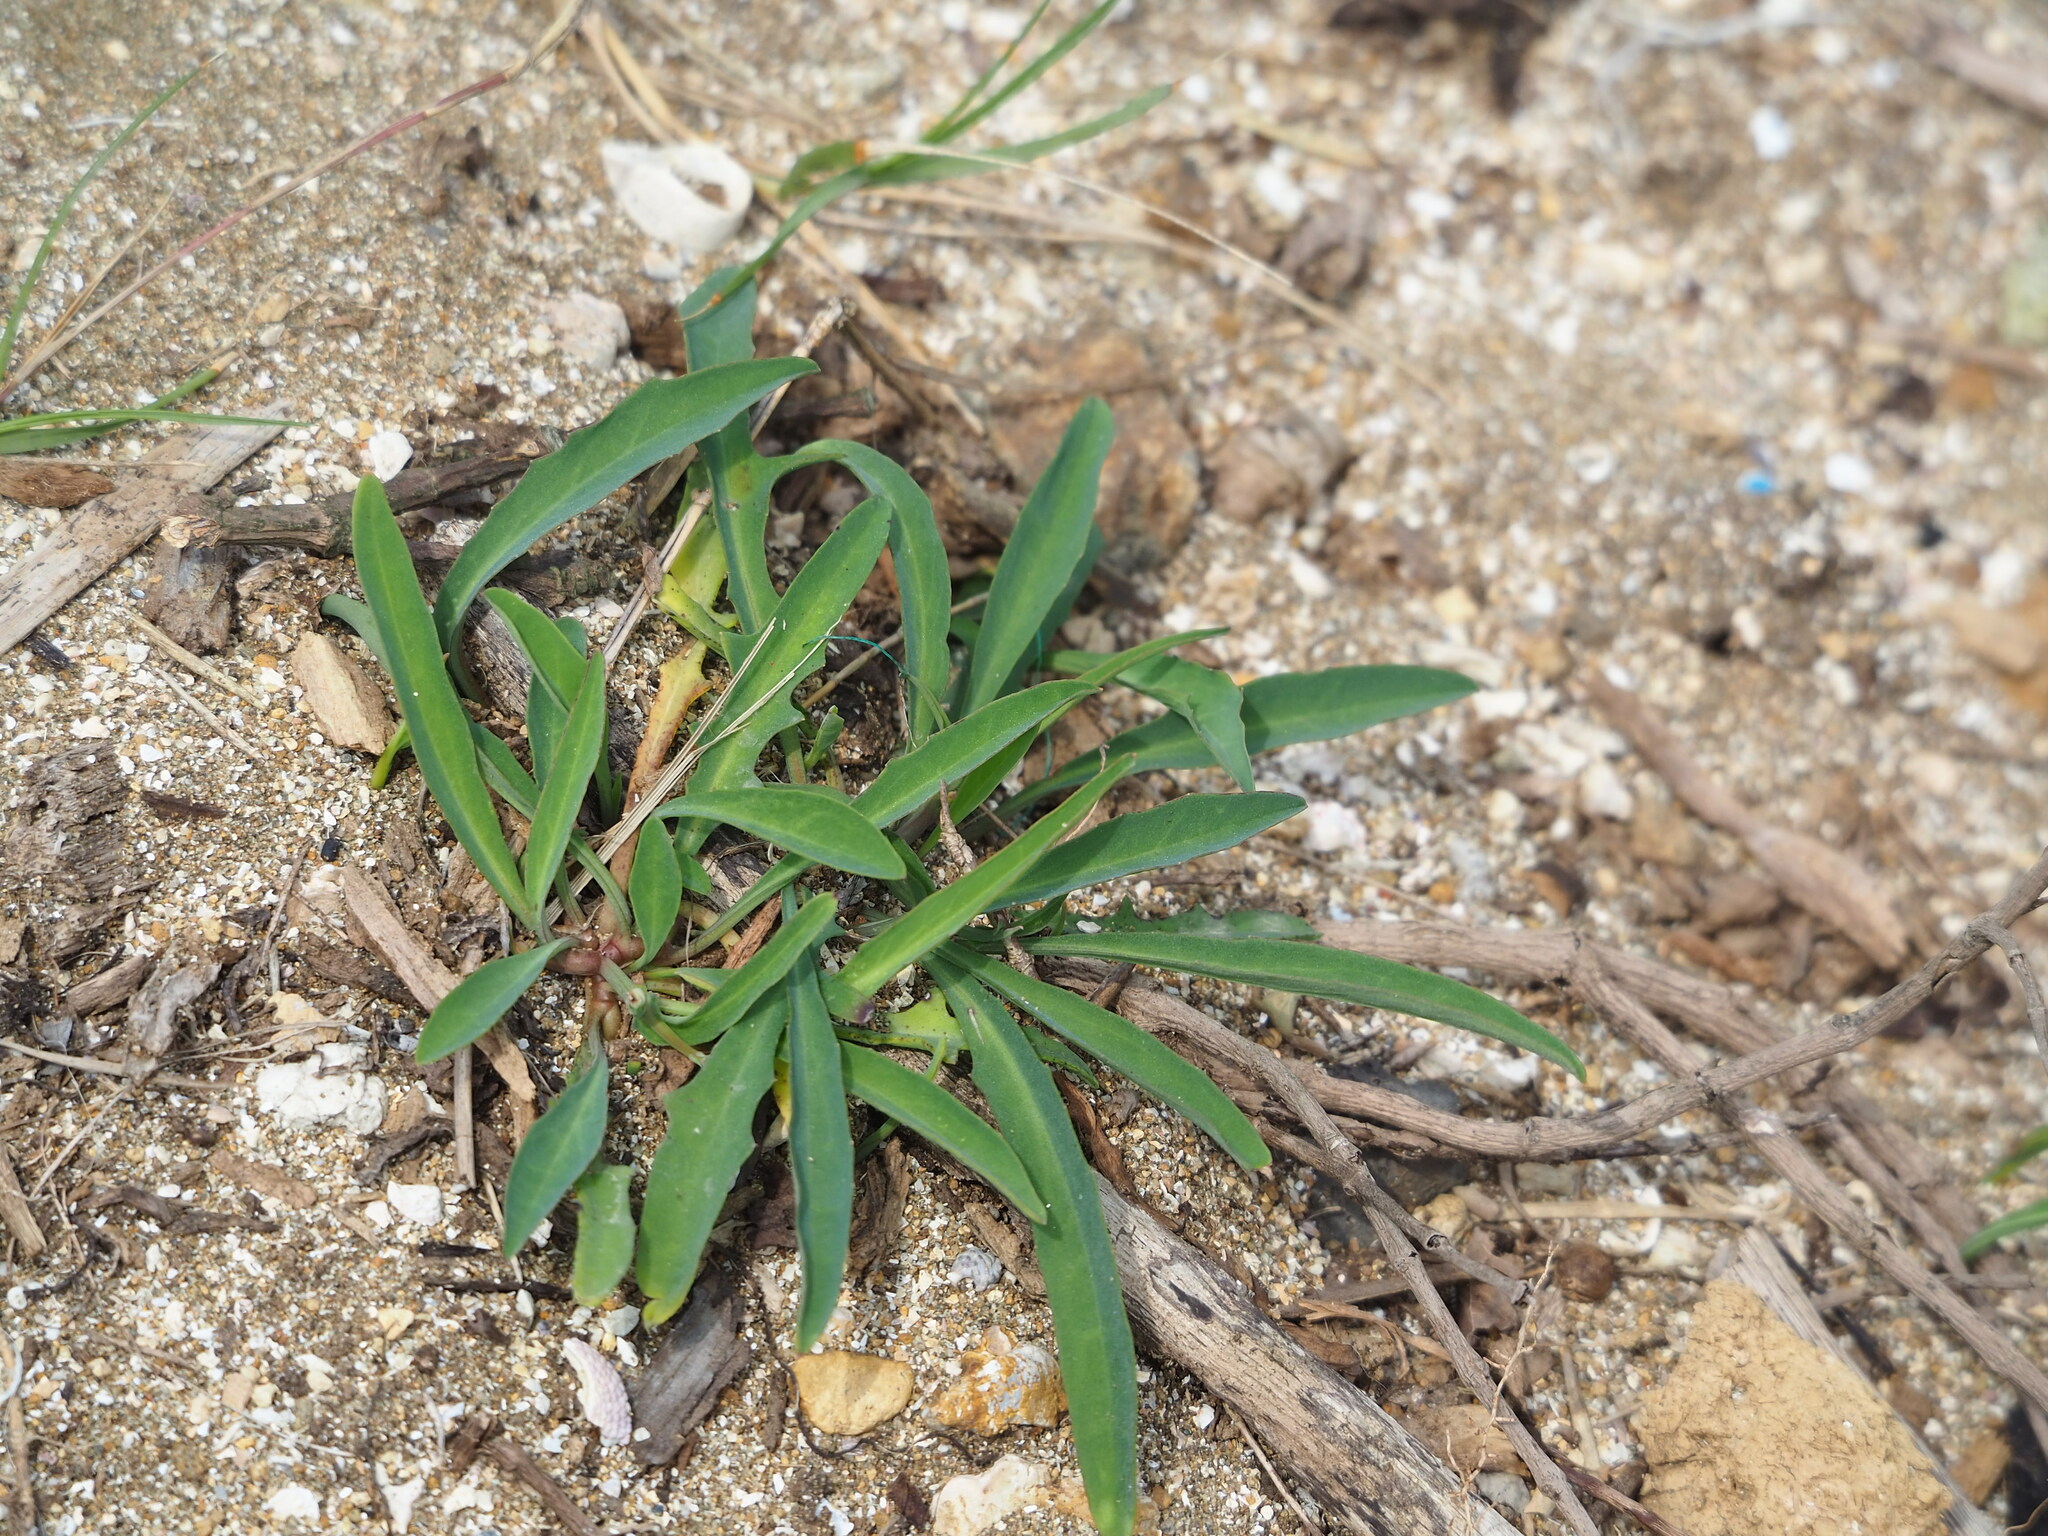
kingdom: Plantae
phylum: Tracheophyta
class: Magnoliopsida
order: Asterales
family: Asteraceae
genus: Ixeris
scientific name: Ixeris japonica
